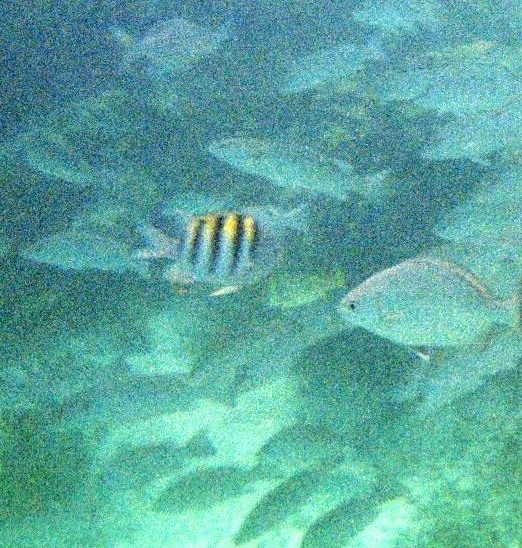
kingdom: Animalia
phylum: Chordata
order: Perciformes
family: Pomacentridae
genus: Abudefduf
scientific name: Abudefduf saxatilis
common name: Sergeant major
